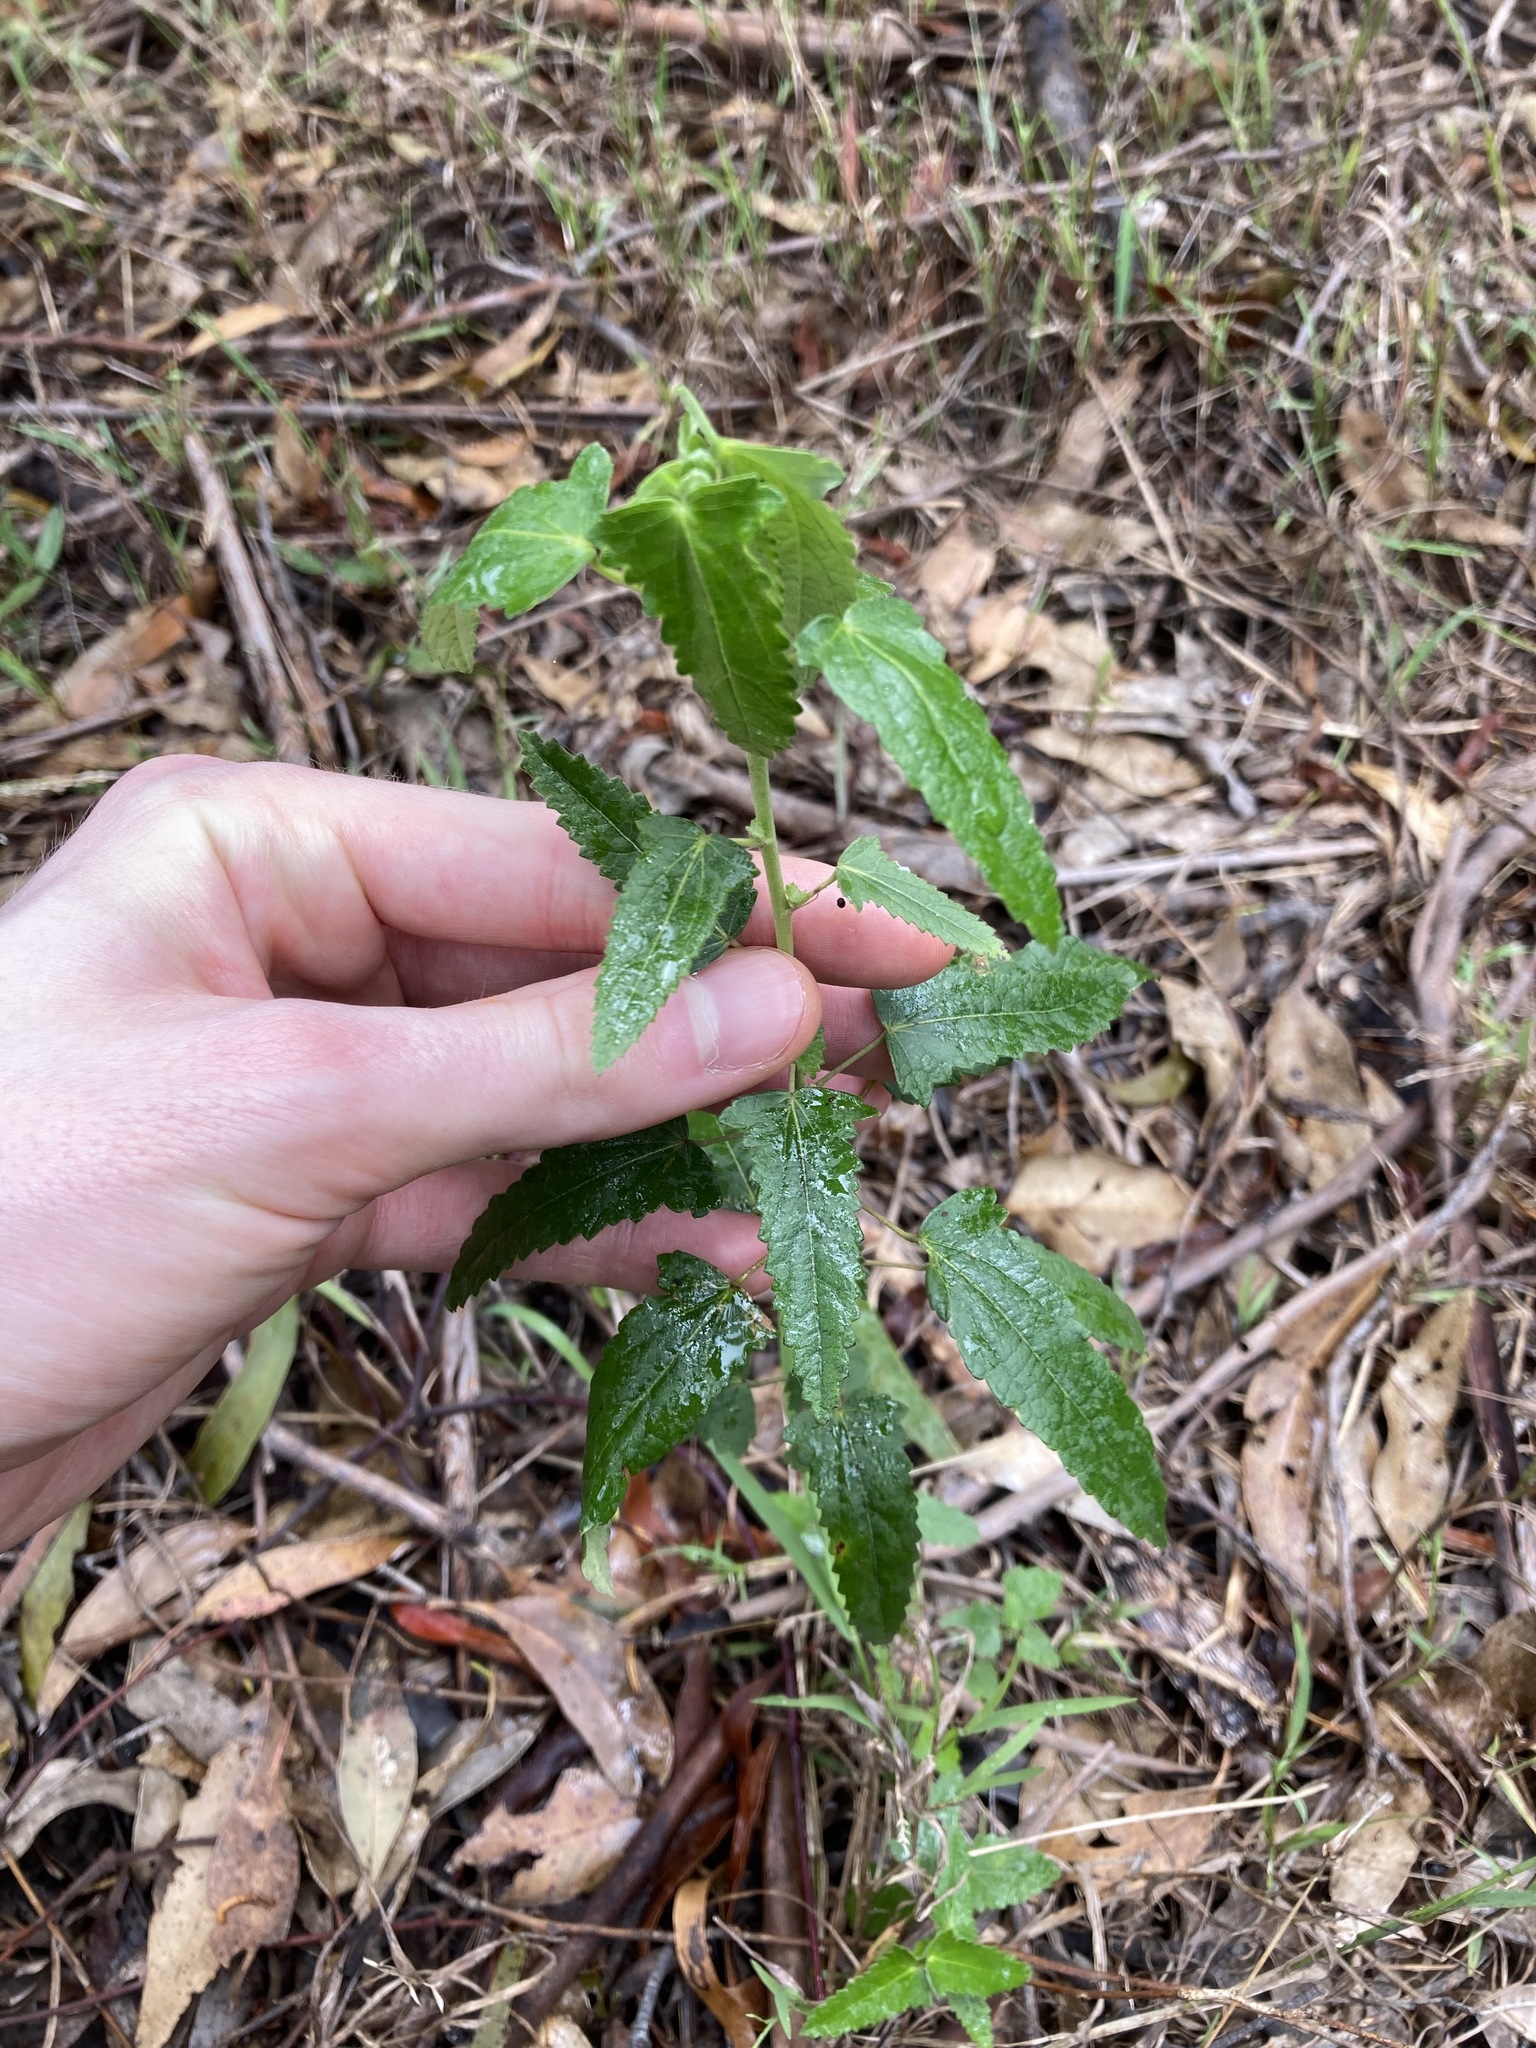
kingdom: Plantae
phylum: Tracheophyta
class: Magnoliopsida
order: Malvales
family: Malvaceae
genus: Pavonia
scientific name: Pavonia hastata
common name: Spearleaf swampmallow
